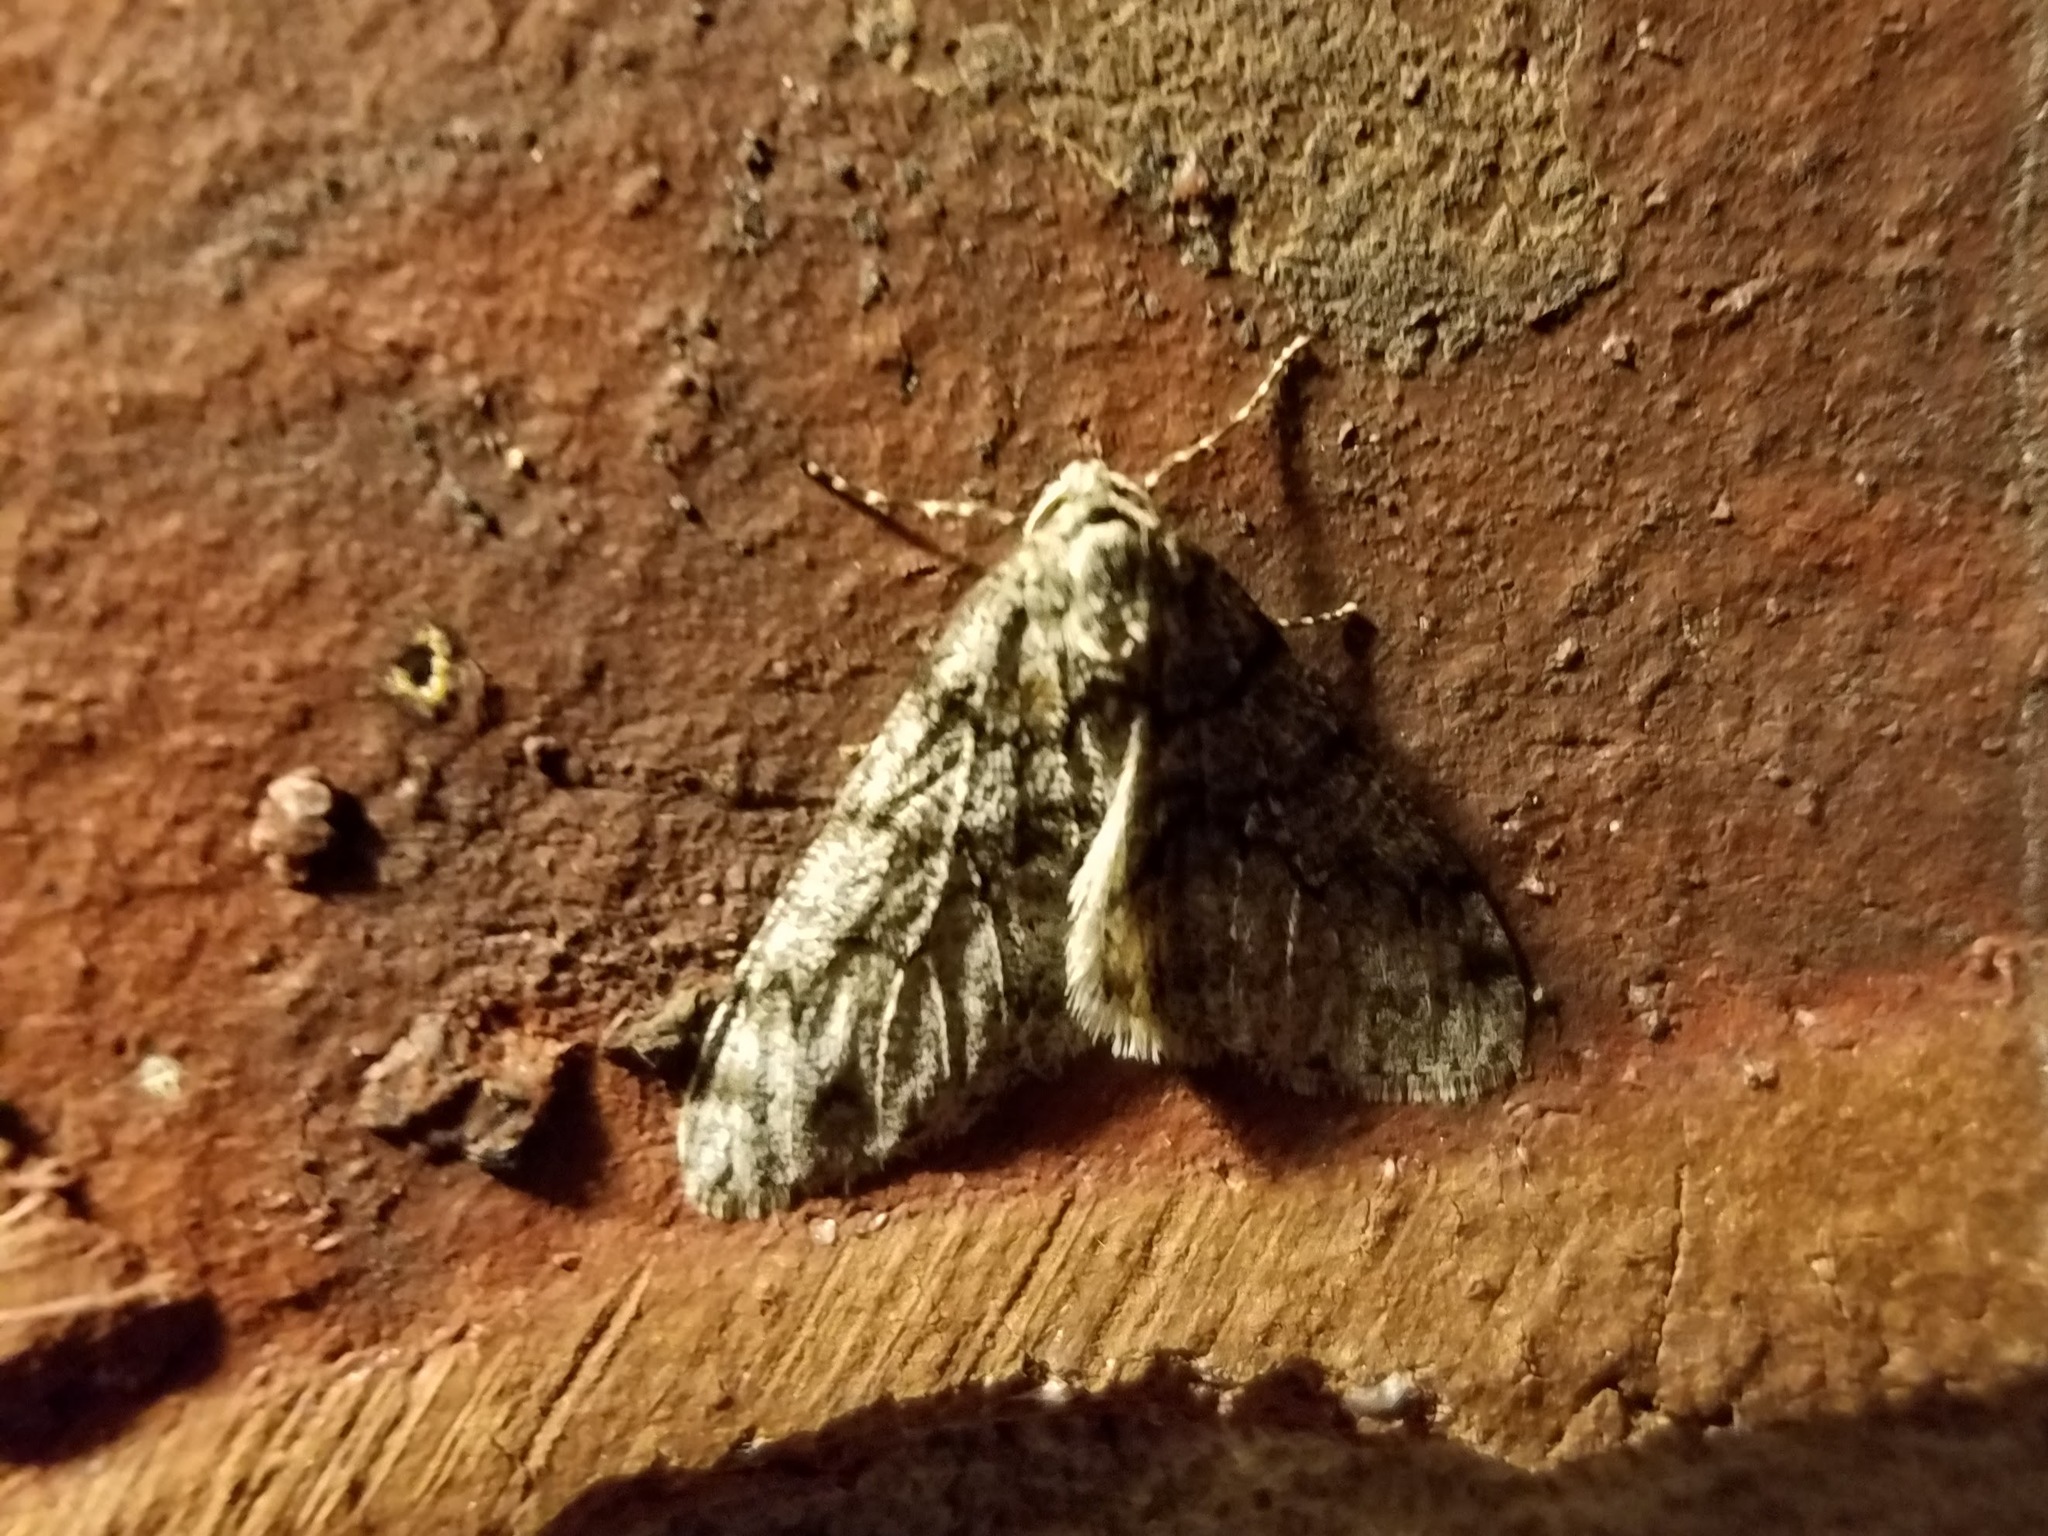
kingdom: Animalia
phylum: Arthropoda
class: Insecta
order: Lepidoptera
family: Geometridae
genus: Phigalia
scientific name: Phigalia denticulata
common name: Toothed phigalia
